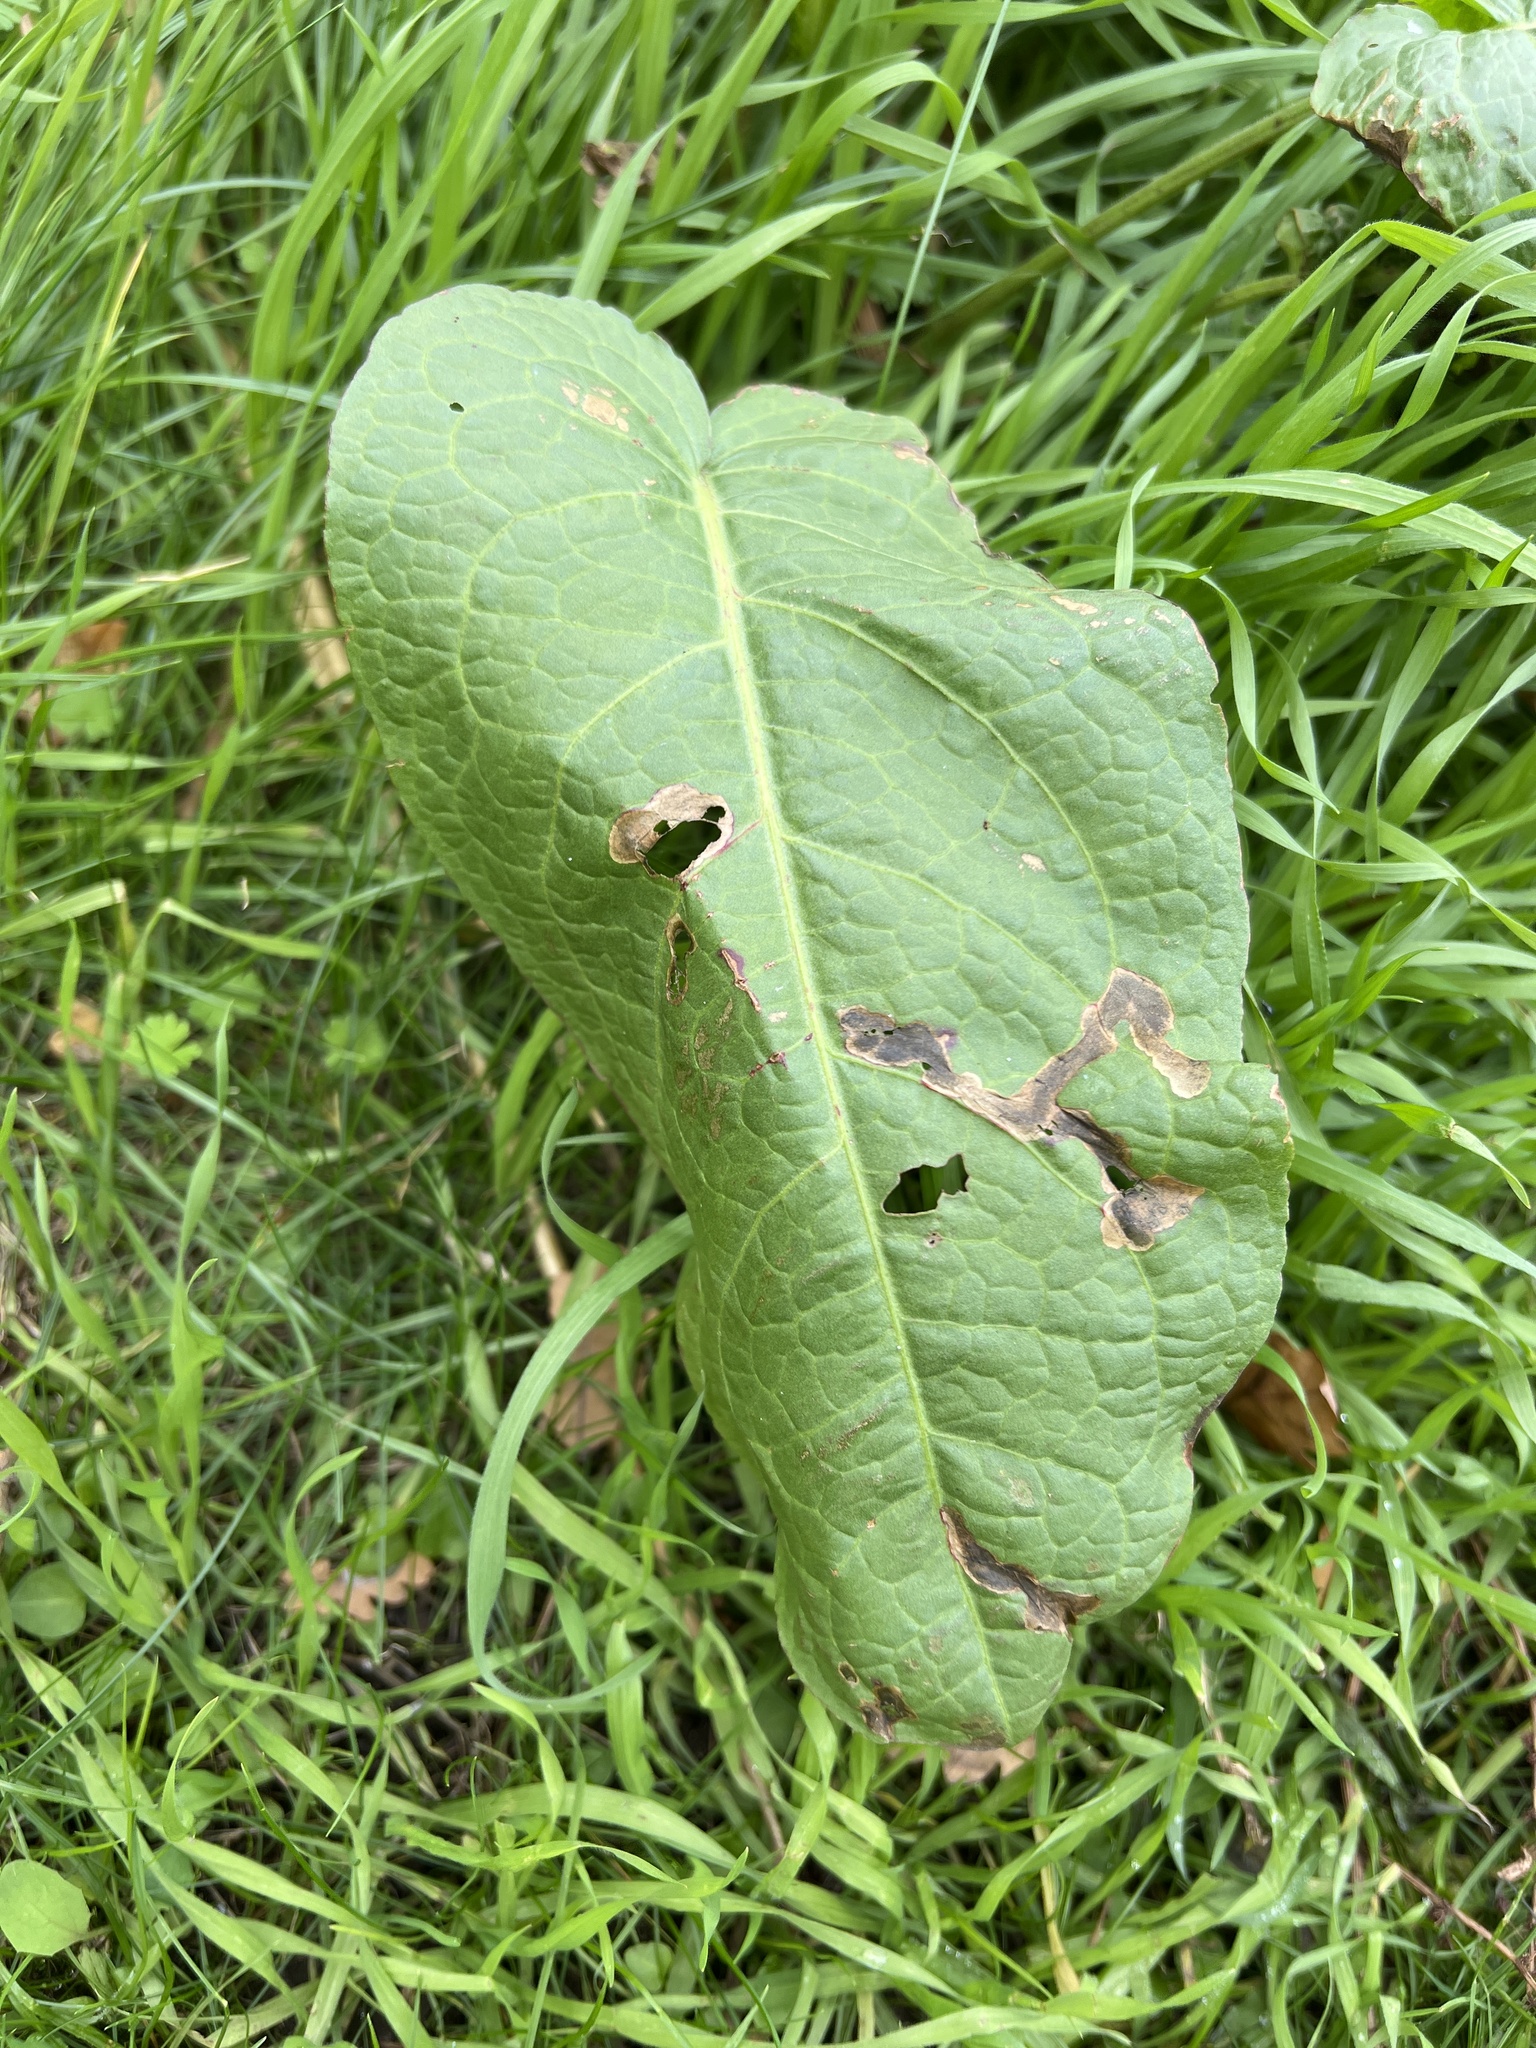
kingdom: Plantae
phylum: Tracheophyta
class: Magnoliopsida
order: Caryophyllales
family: Polygonaceae
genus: Rumex
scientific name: Rumex obtusifolius
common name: Bitter dock
